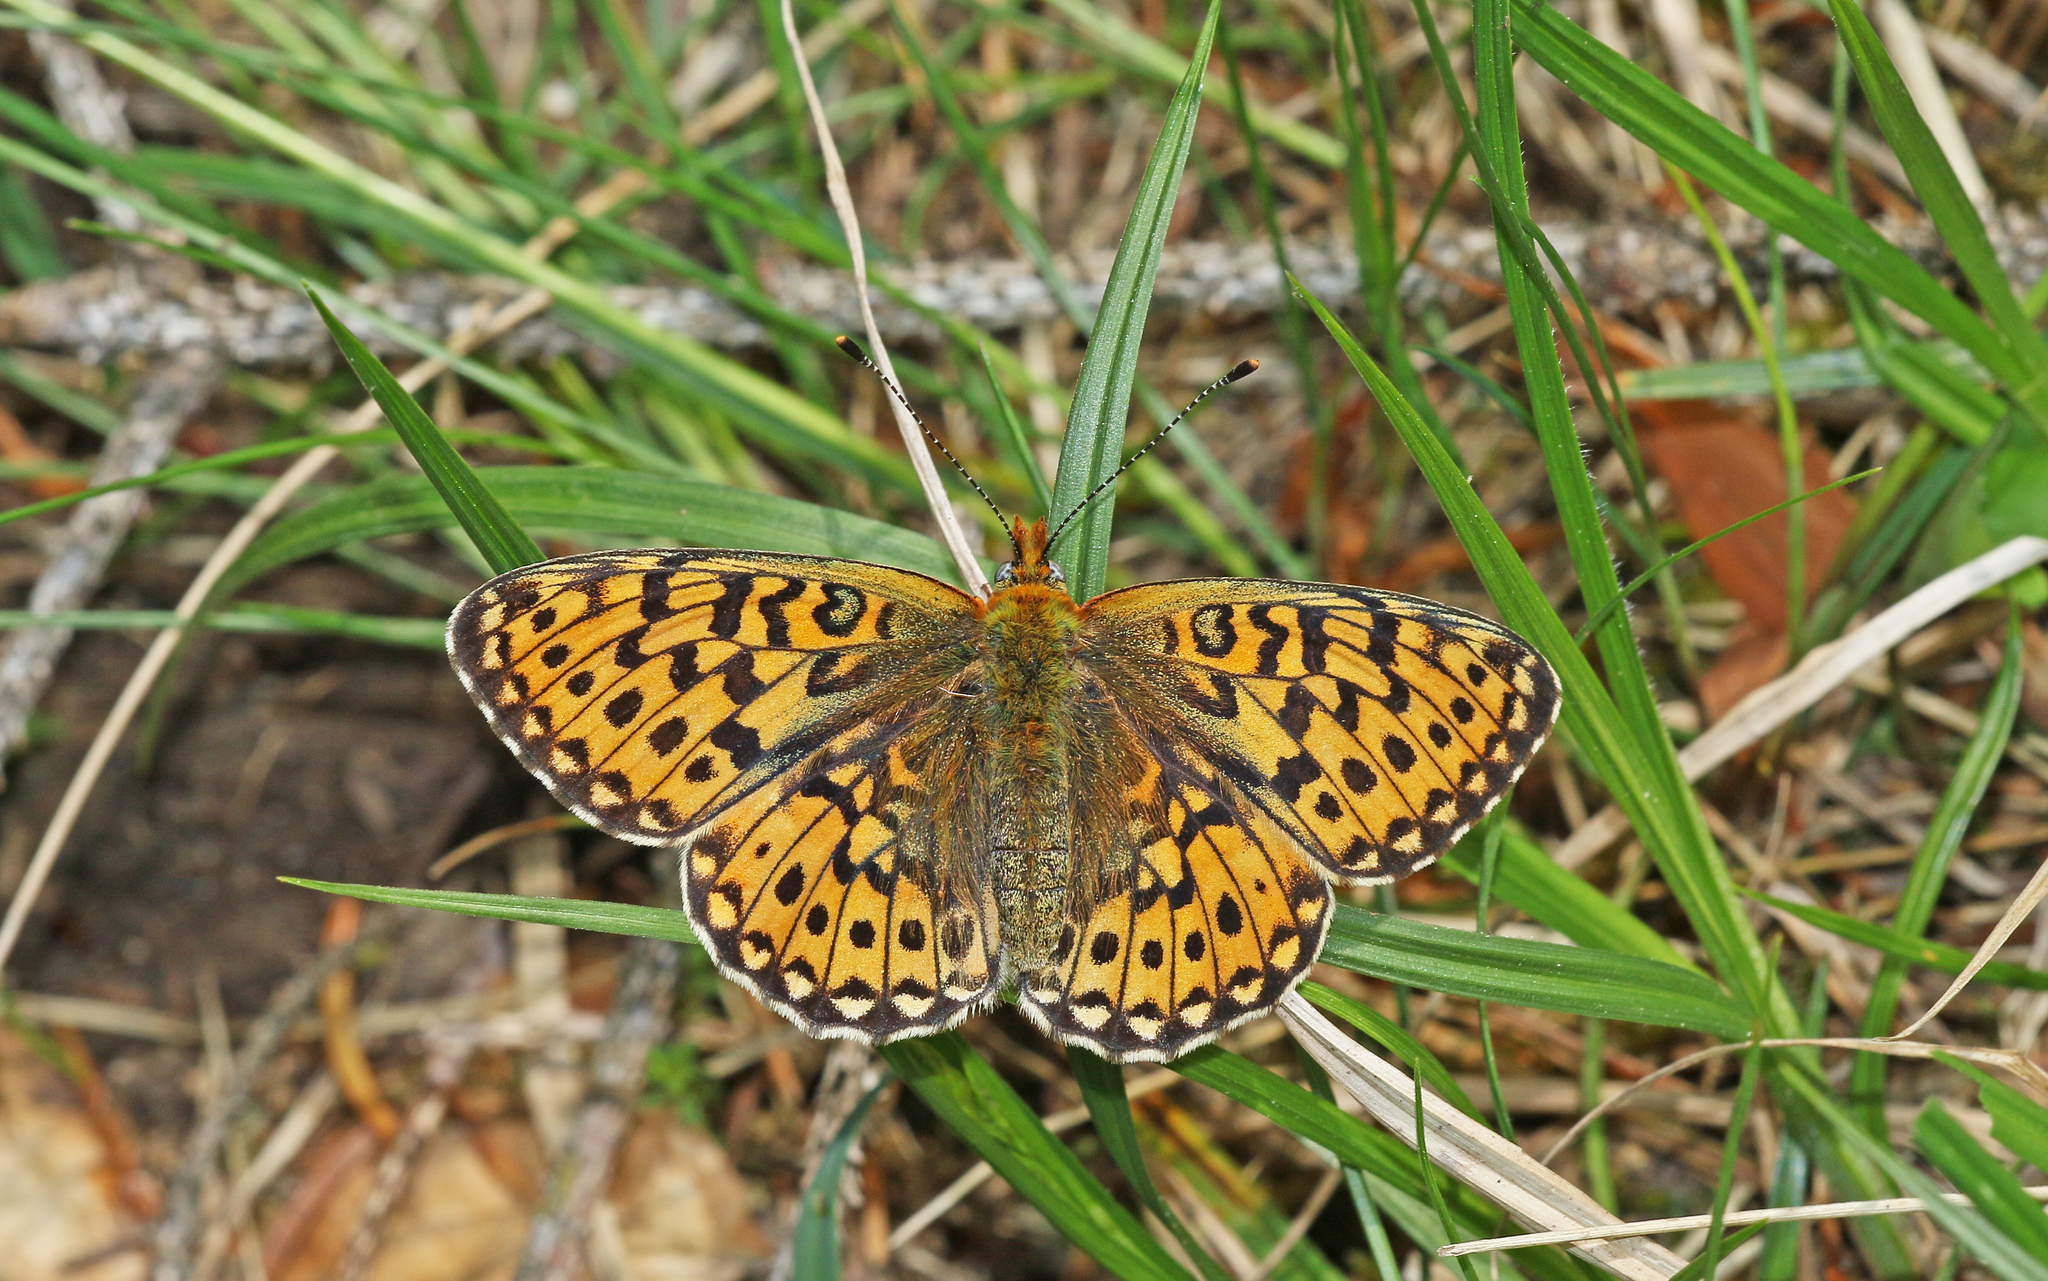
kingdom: Animalia
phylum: Arthropoda
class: Insecta
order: Lepidoptera
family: Nymphalidae
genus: Clossiana
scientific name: Clossiana euphrosyne
